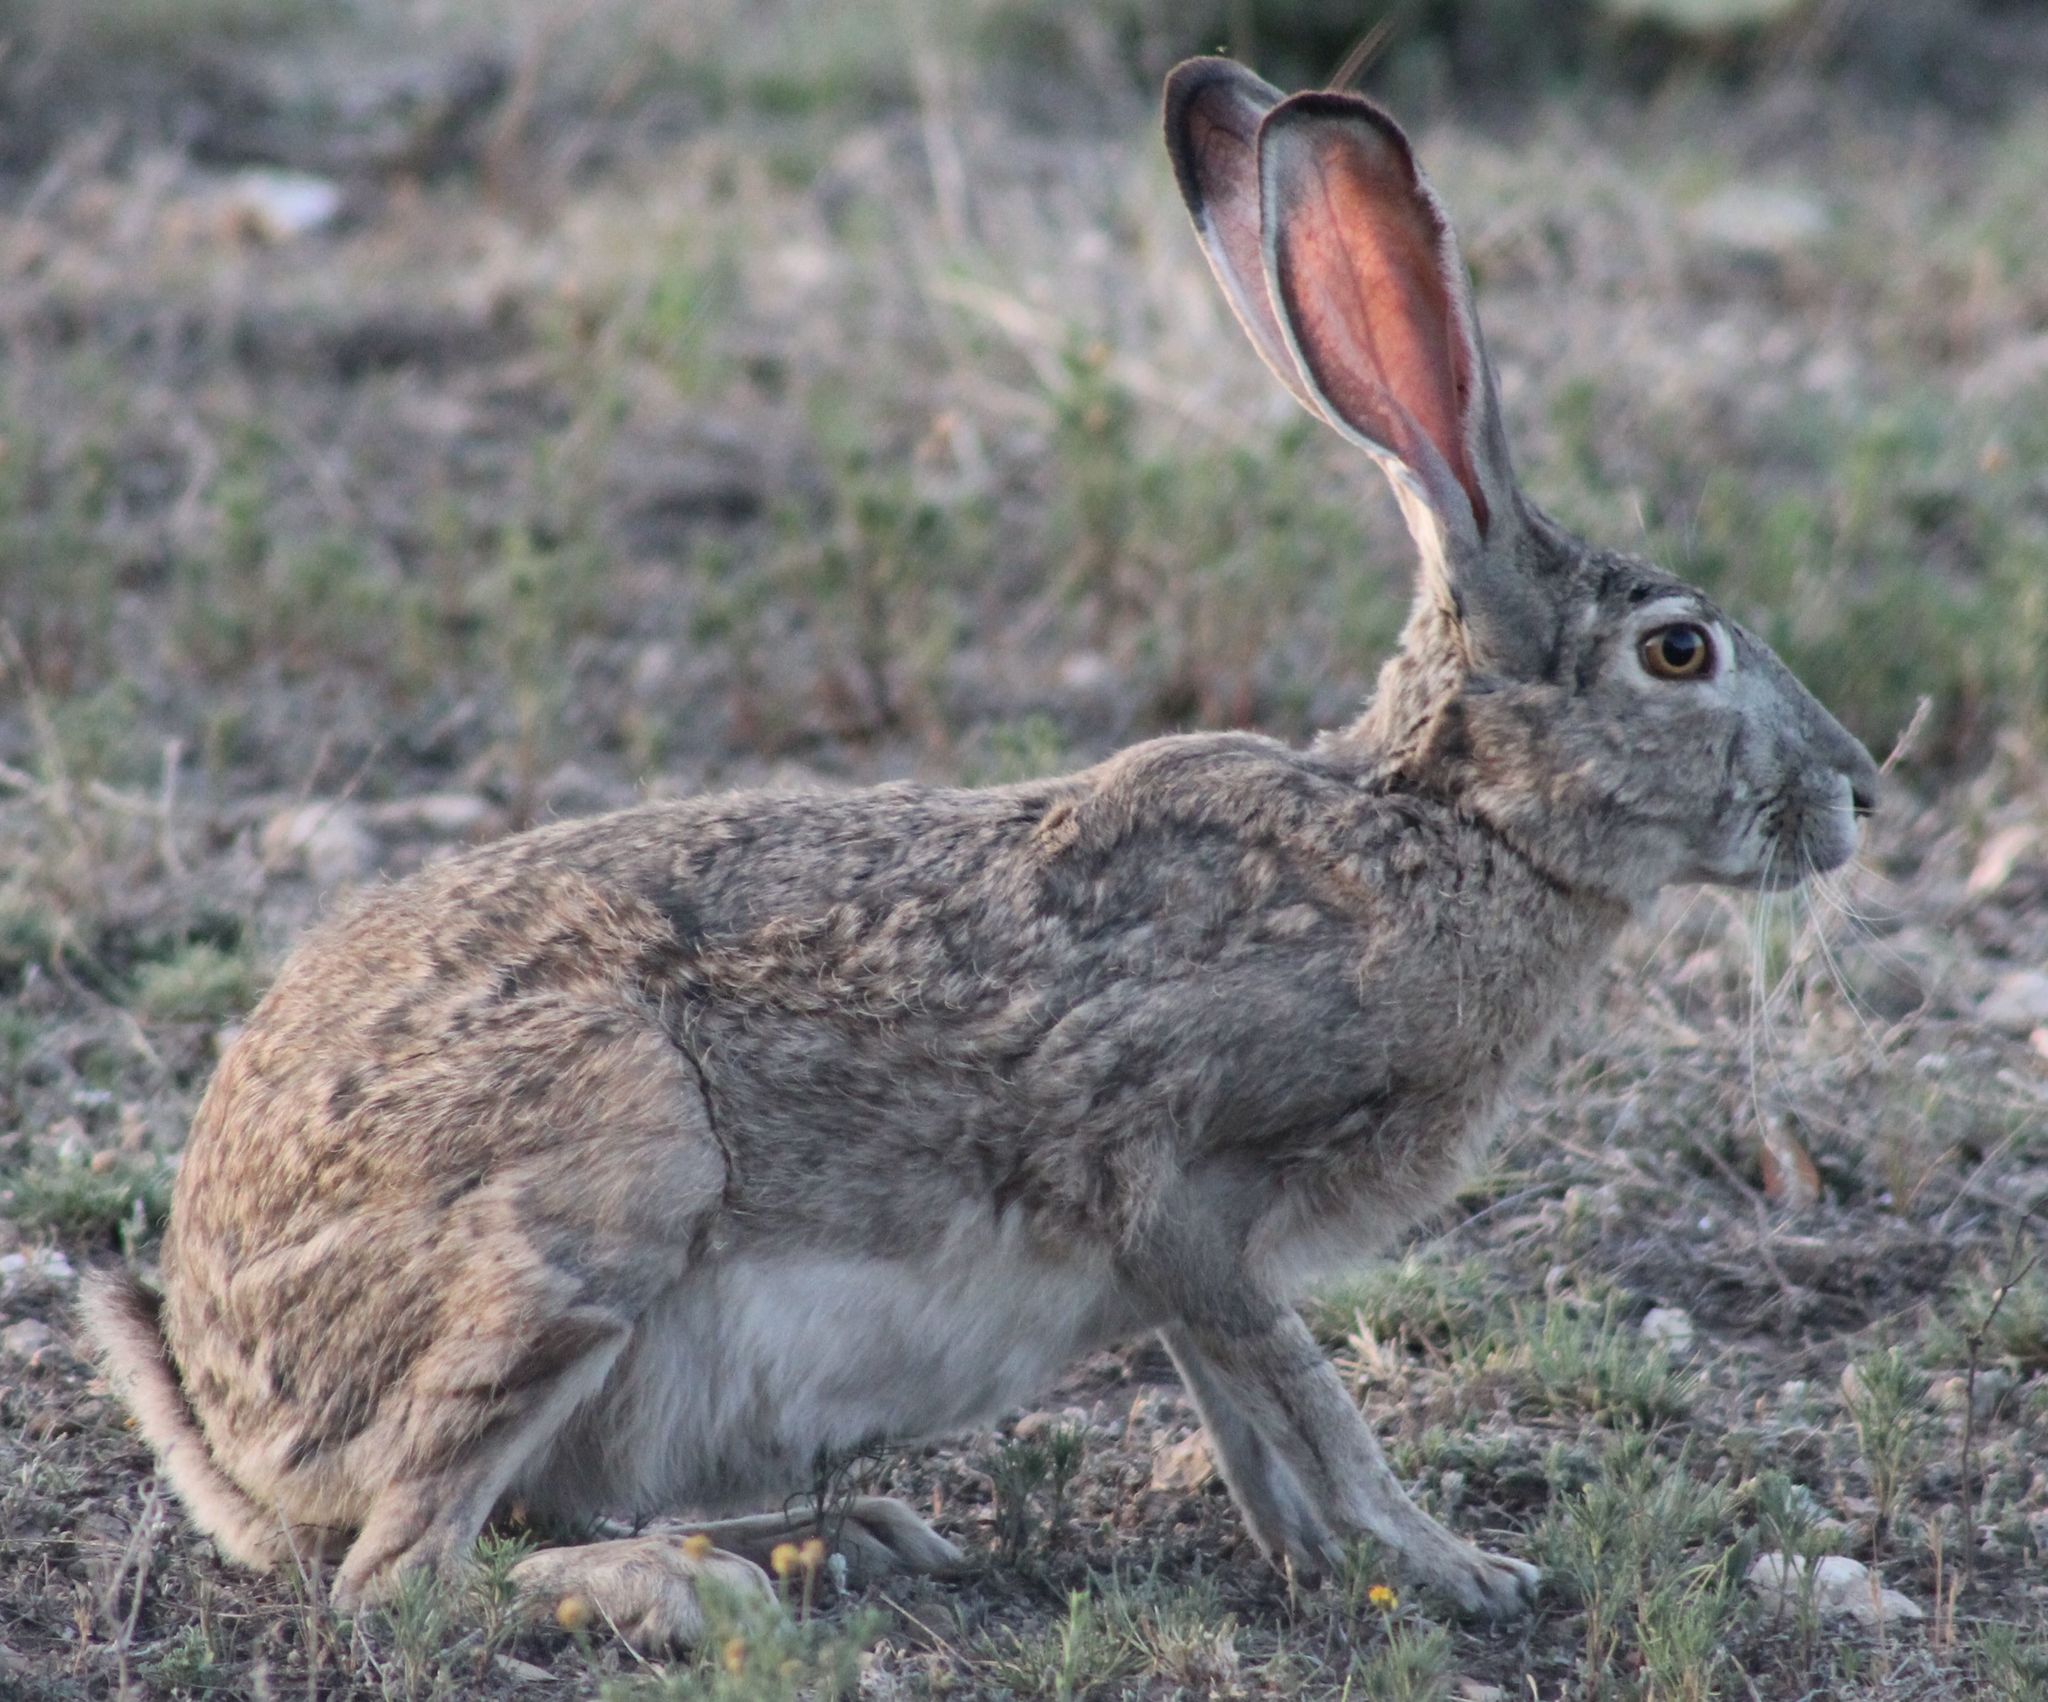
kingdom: Animalia
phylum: Chordata
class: Mammalia
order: Lagomorpha
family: Leporidae
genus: Lepus
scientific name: Lepus californicus
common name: Black-tailed jackrabbit
